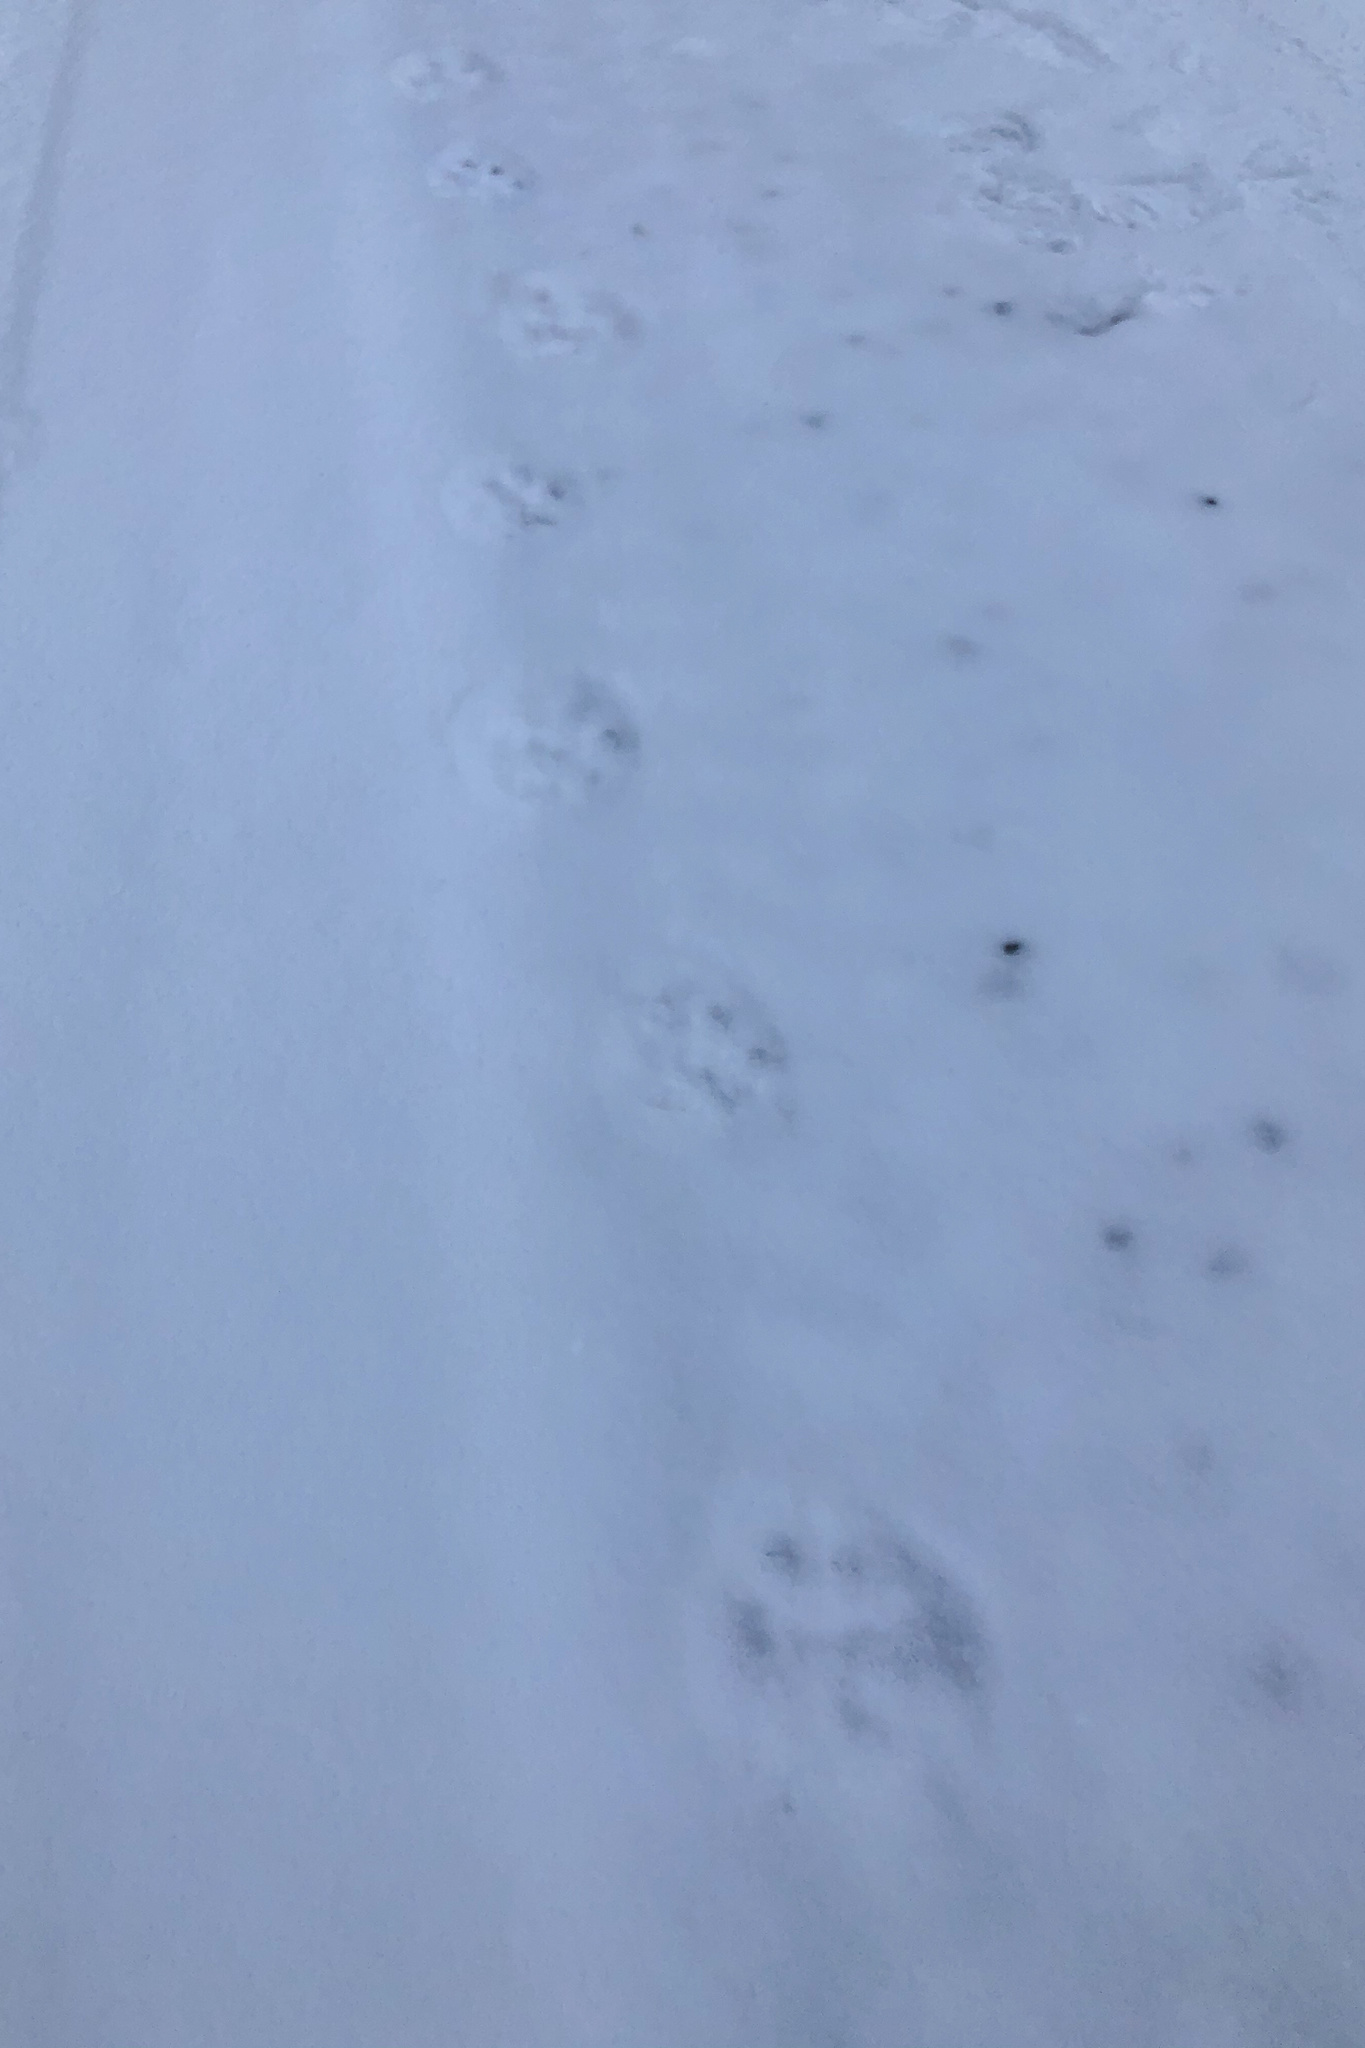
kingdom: Animalia
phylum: Chordata
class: Mammalia
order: Carnivora
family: Felidae
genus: Lynx
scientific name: Lynx lynx
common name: Eurasian lynx
